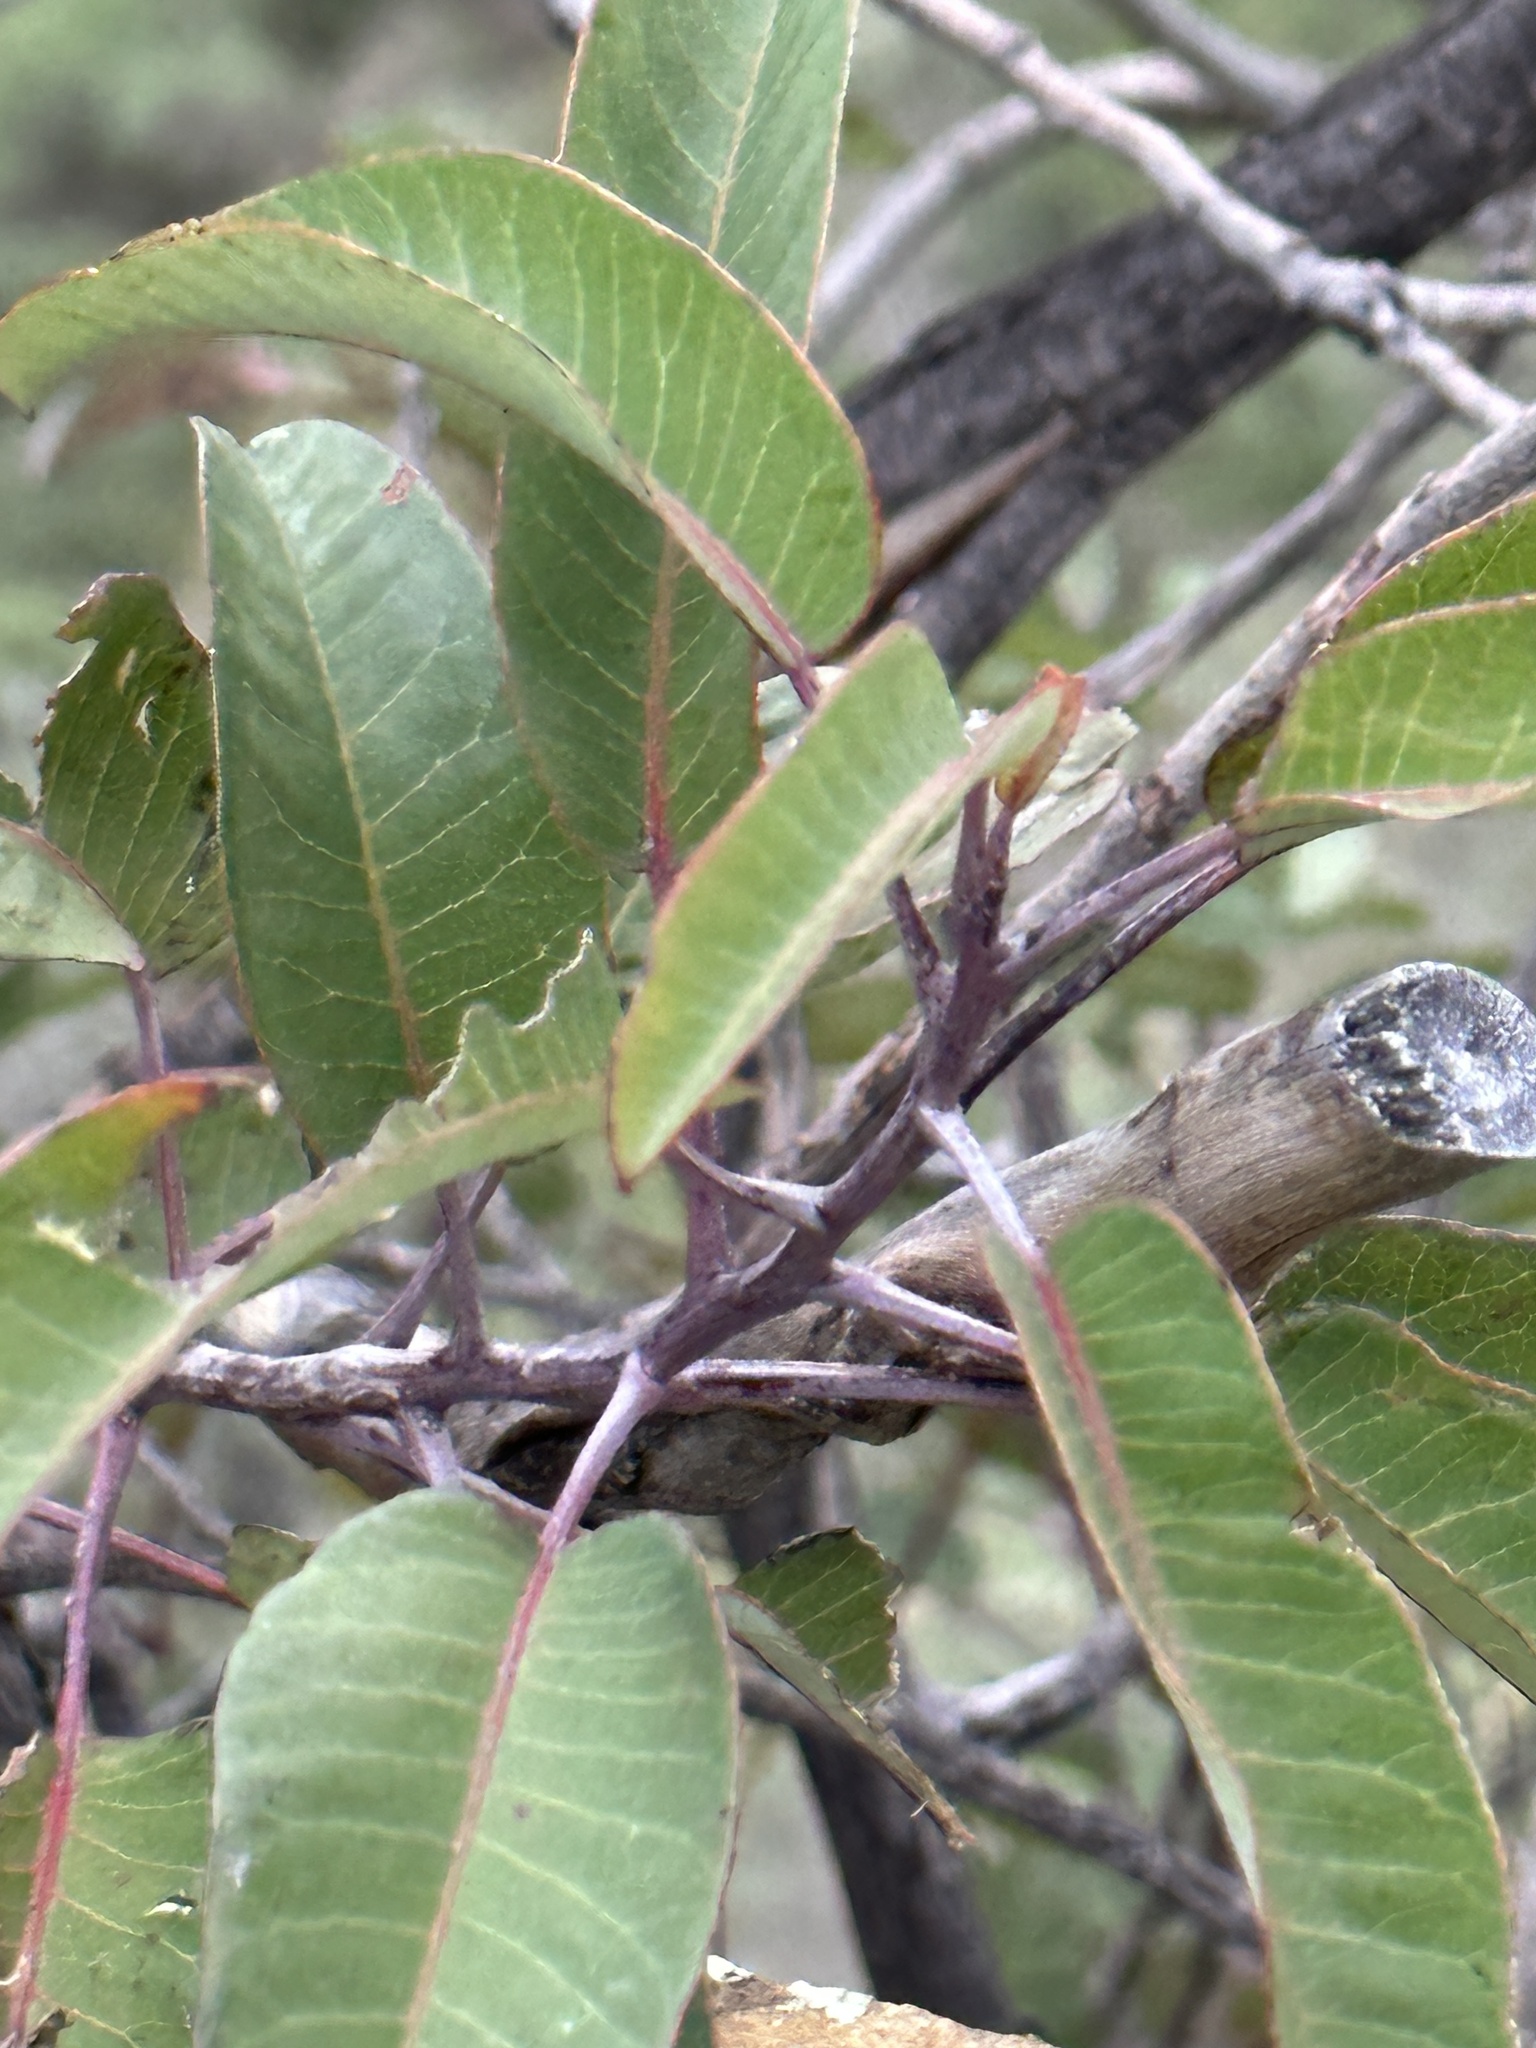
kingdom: Plantae
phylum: Tracheophyta
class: Magnoliopsida
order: Sapindales
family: Anacardiaceae
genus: Malosma
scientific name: Malosma laurina
